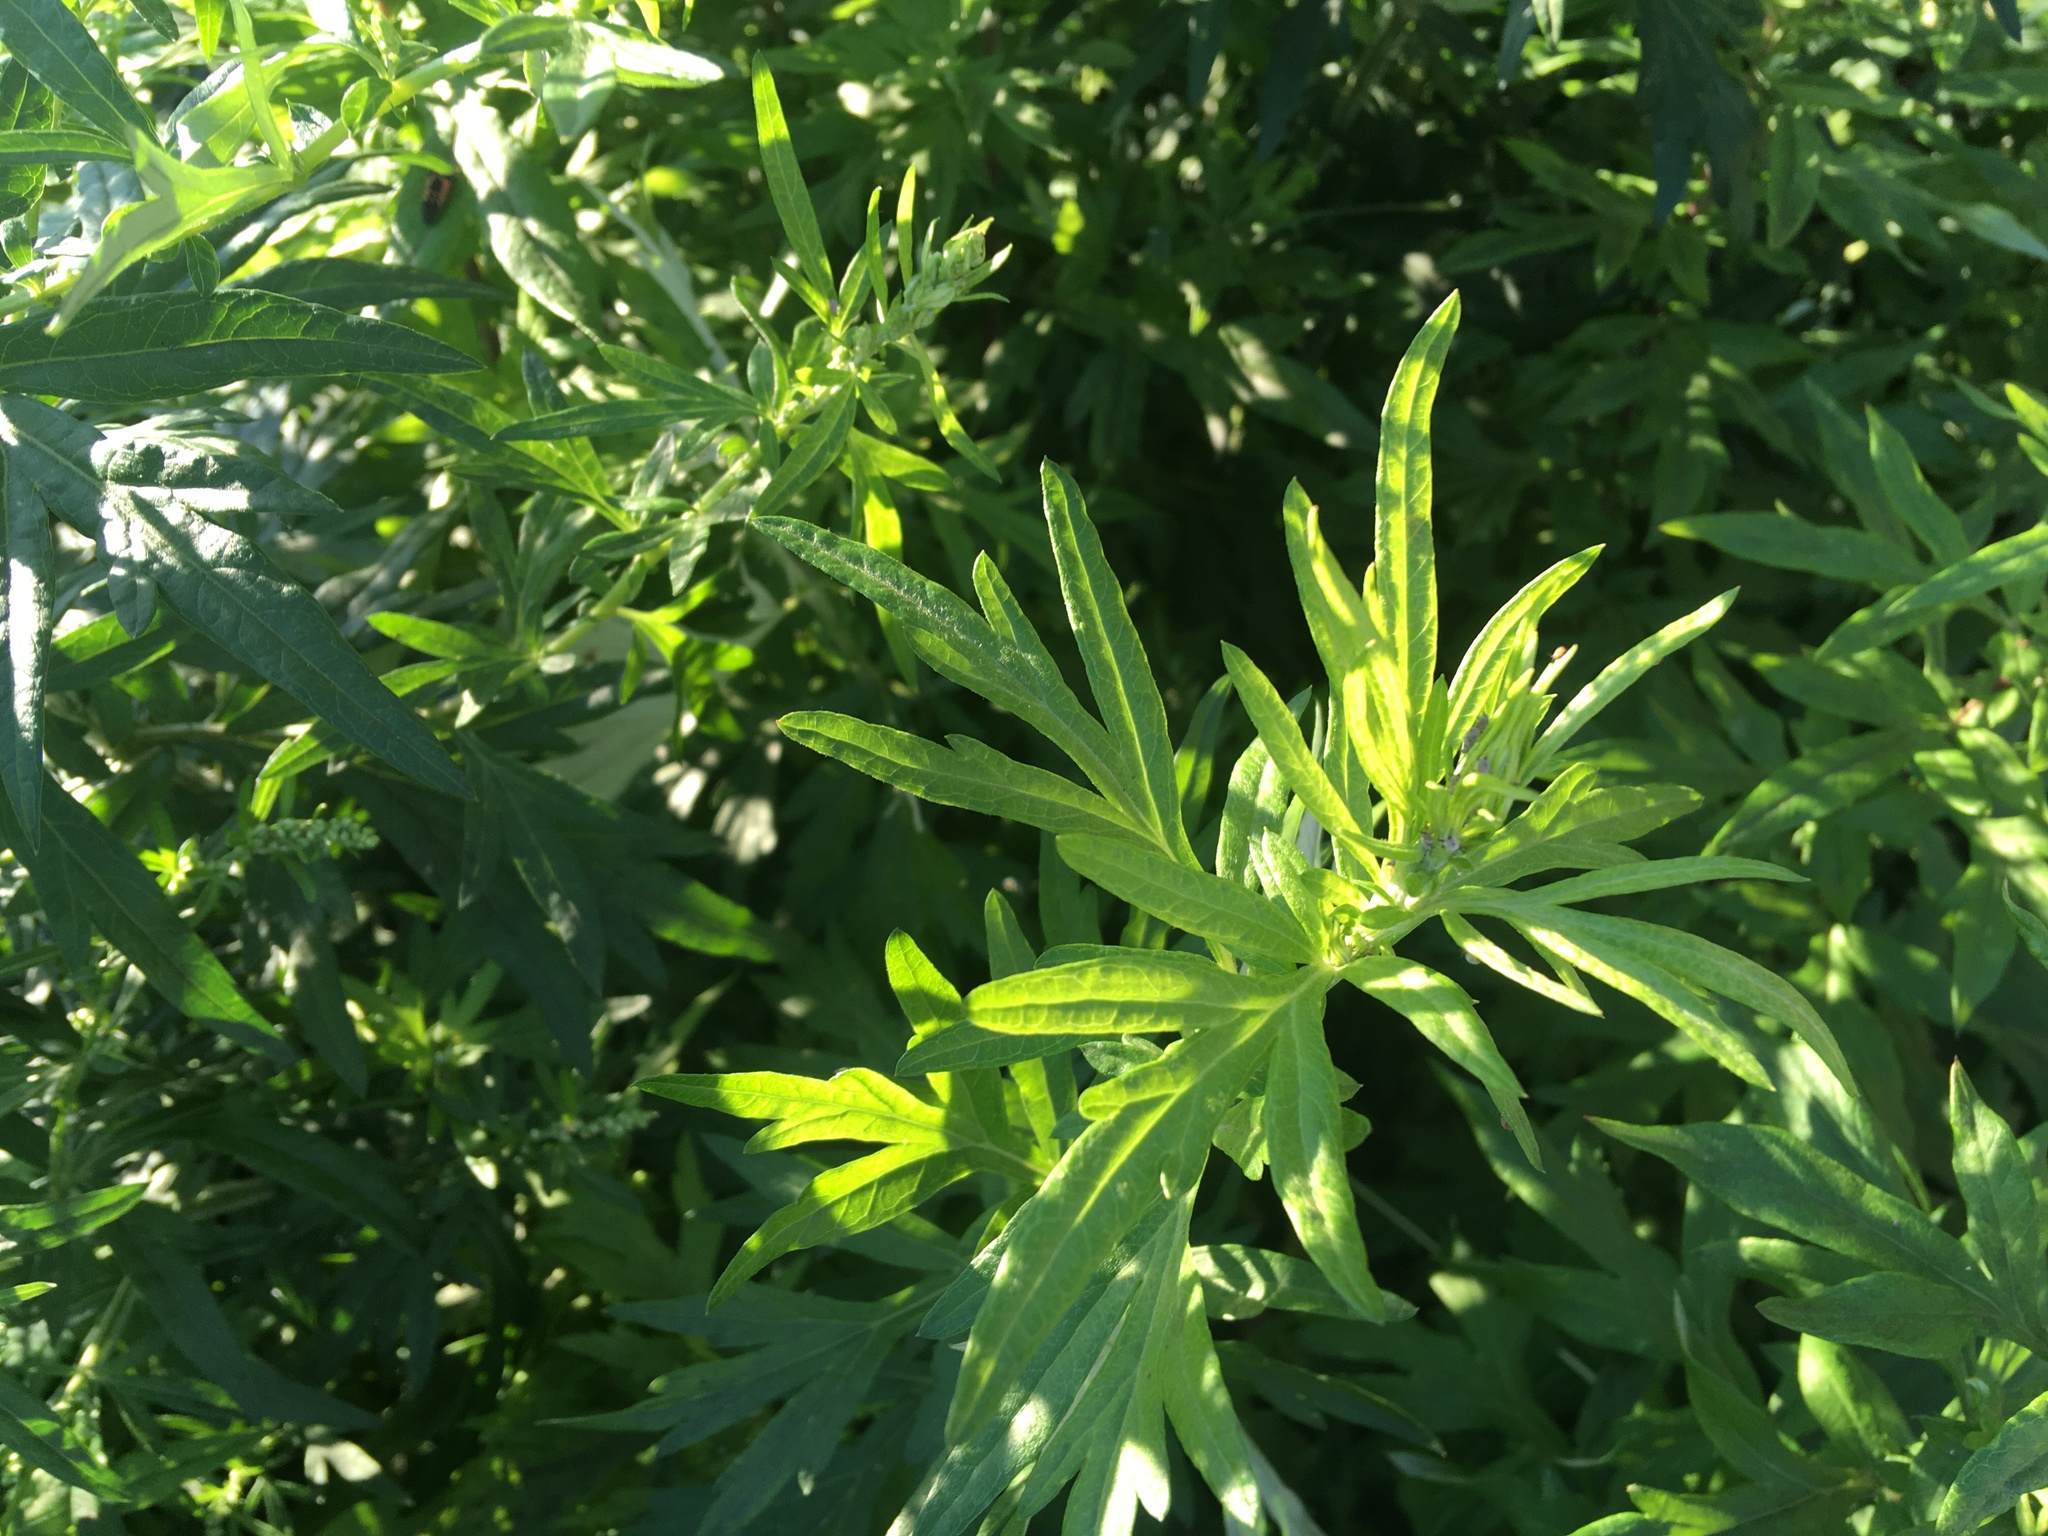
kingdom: Plantae
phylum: Tracheophyta
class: Magnoliopsida
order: Asterales
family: Asteraceae
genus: Artemisia
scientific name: Artemisia vulgaris
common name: Mugwort
